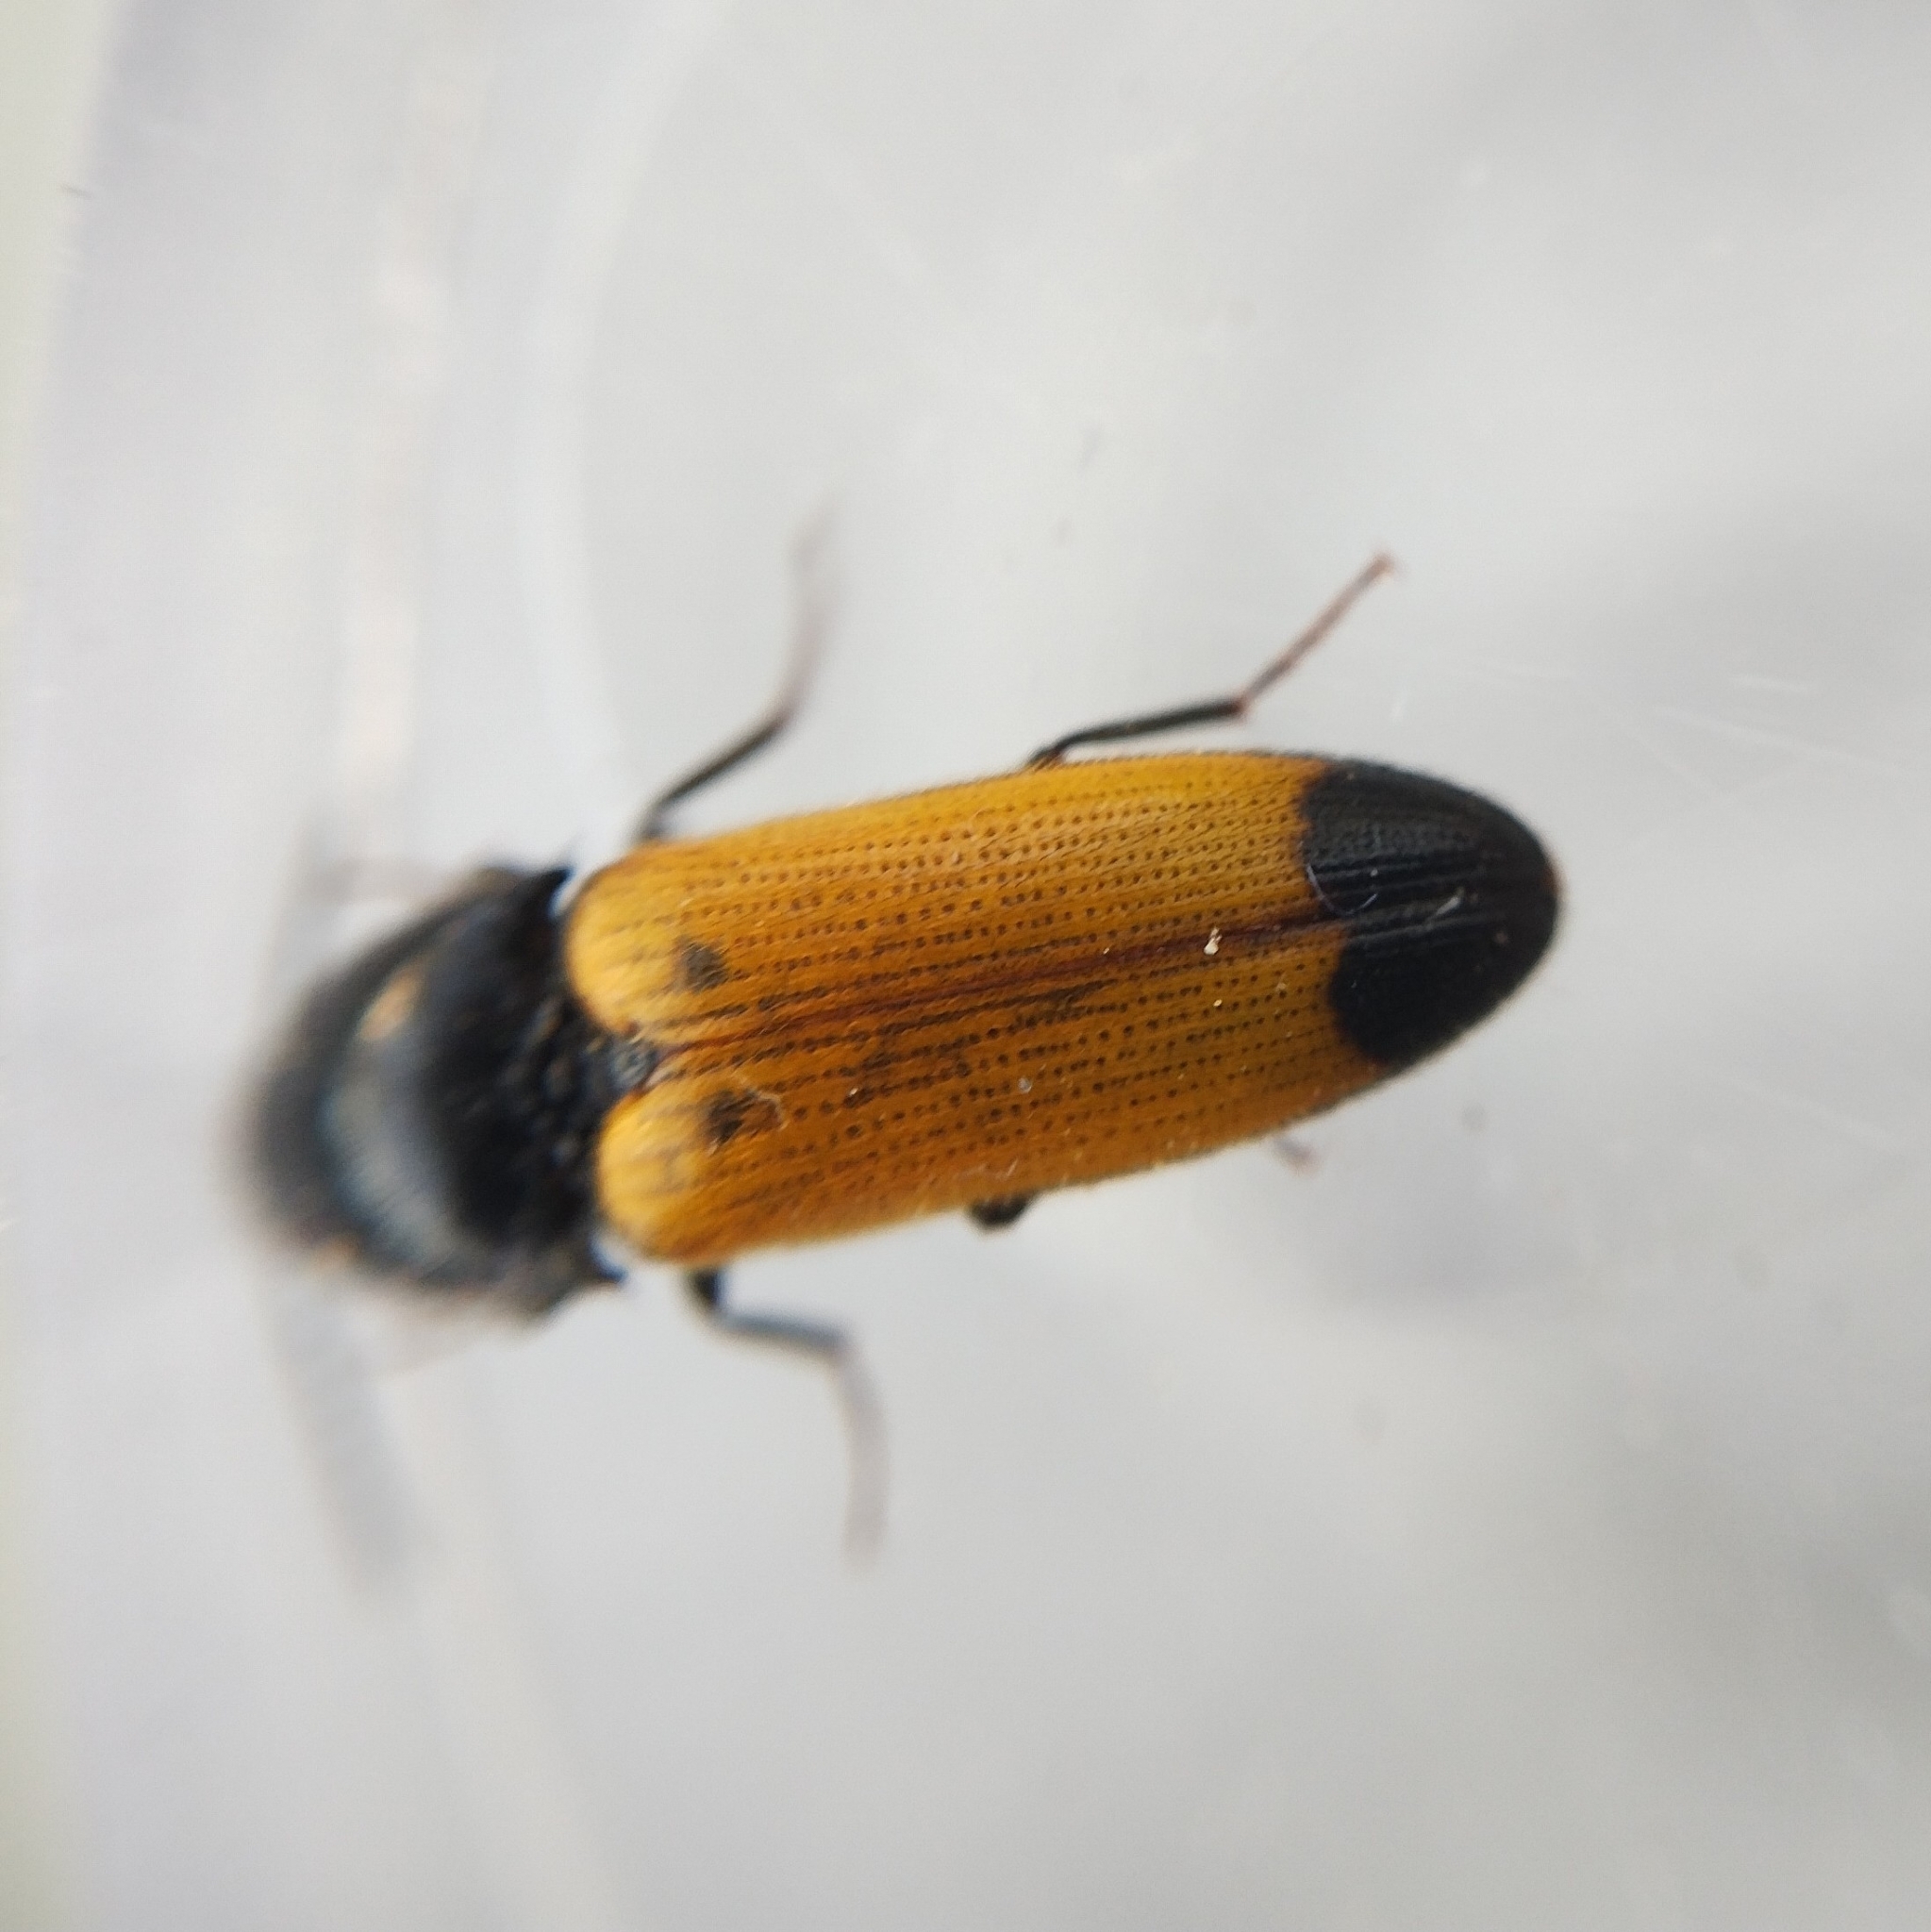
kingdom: Animalia
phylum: Arthropoda
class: Insecta
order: Coleoptera
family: Elateridae
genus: Ampedus
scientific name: Ampedus elegantulus
